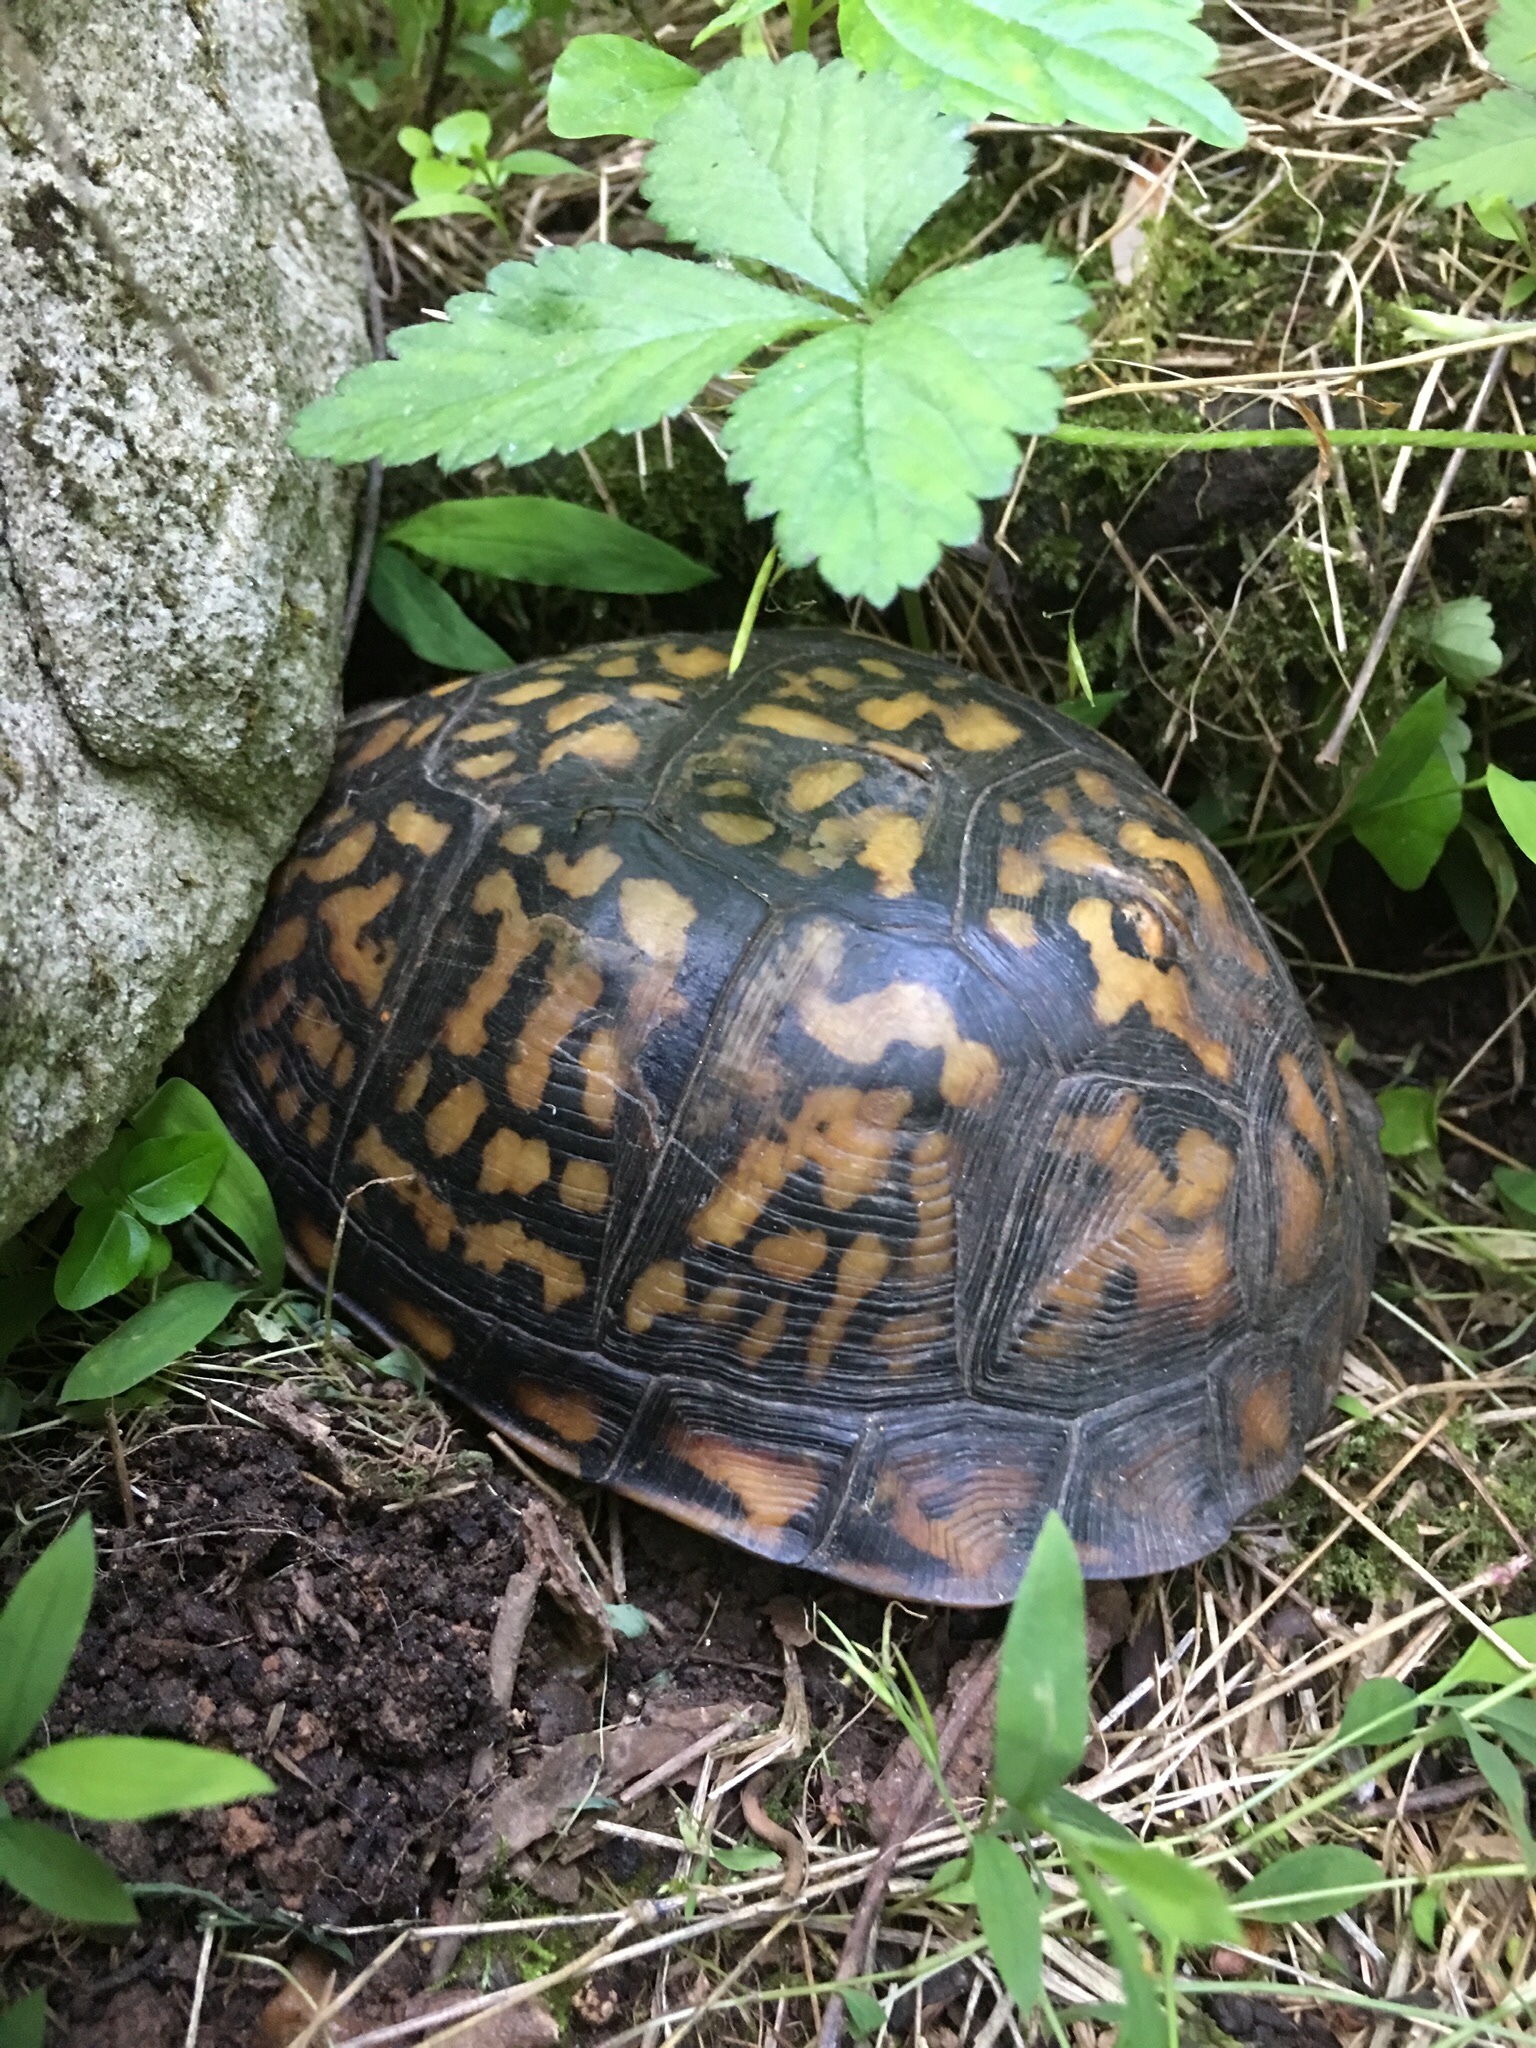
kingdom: Animalia
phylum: Chordata
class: Testudines
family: Emydidae
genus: Terrapene
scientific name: Terrapene carolina
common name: Common box turtle
